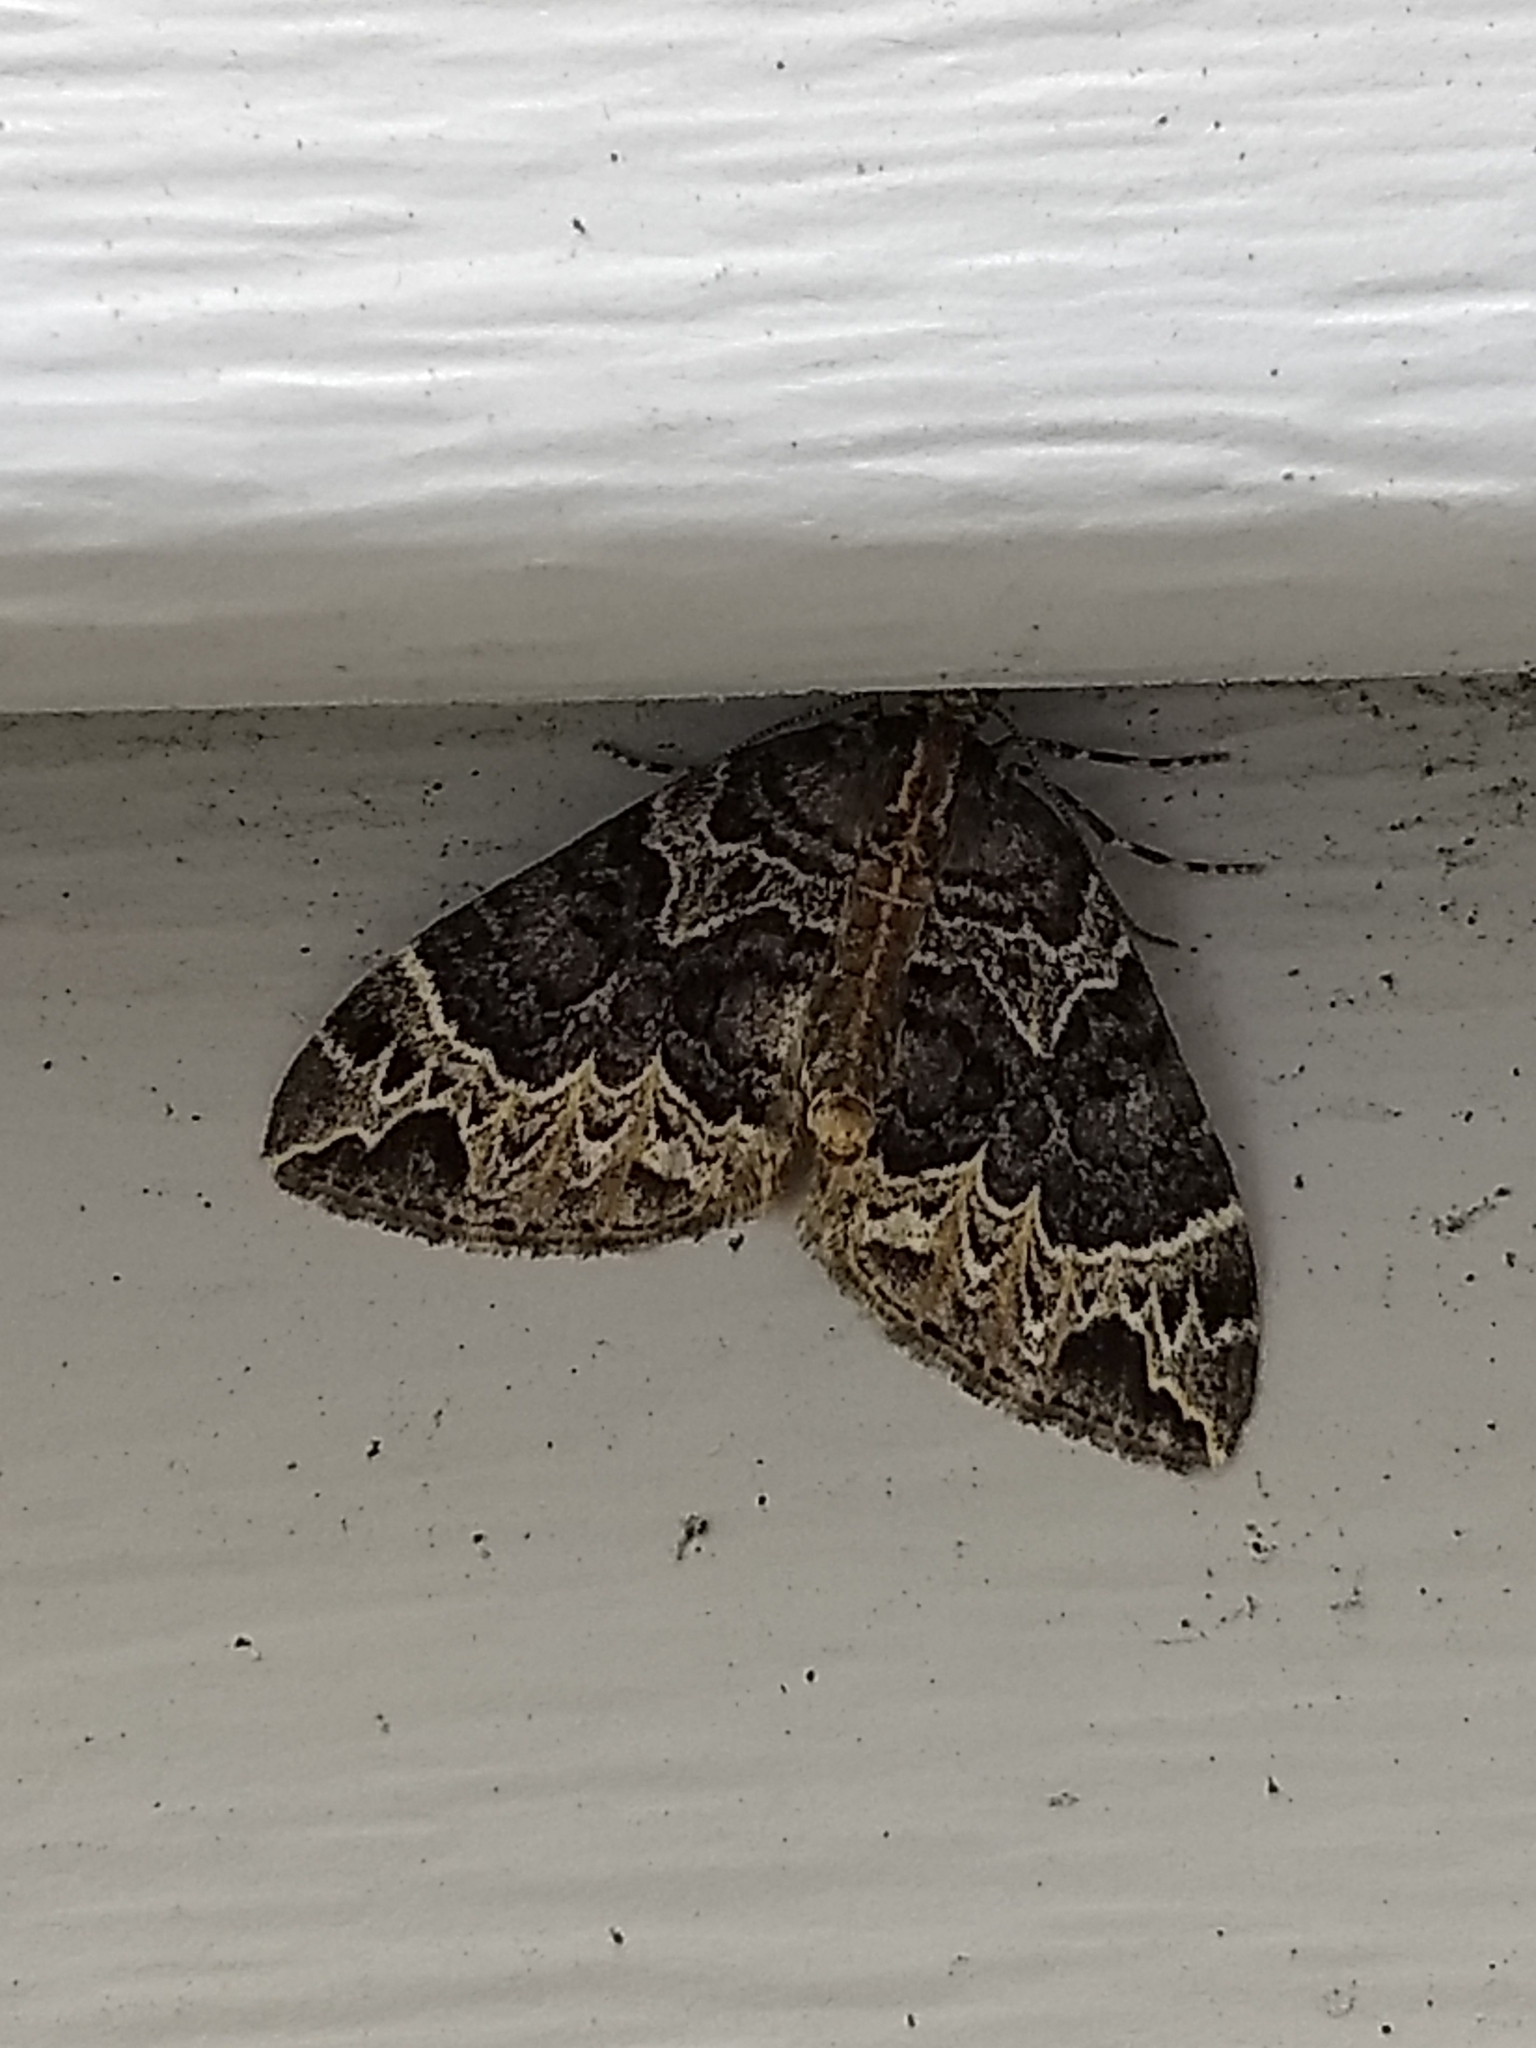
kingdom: Animalia
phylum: Arthropoda
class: Insecta
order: Lepidoptera
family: Geometridae
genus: Ecliptopera
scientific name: Ecliptopera silaceata
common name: Small phoenix
